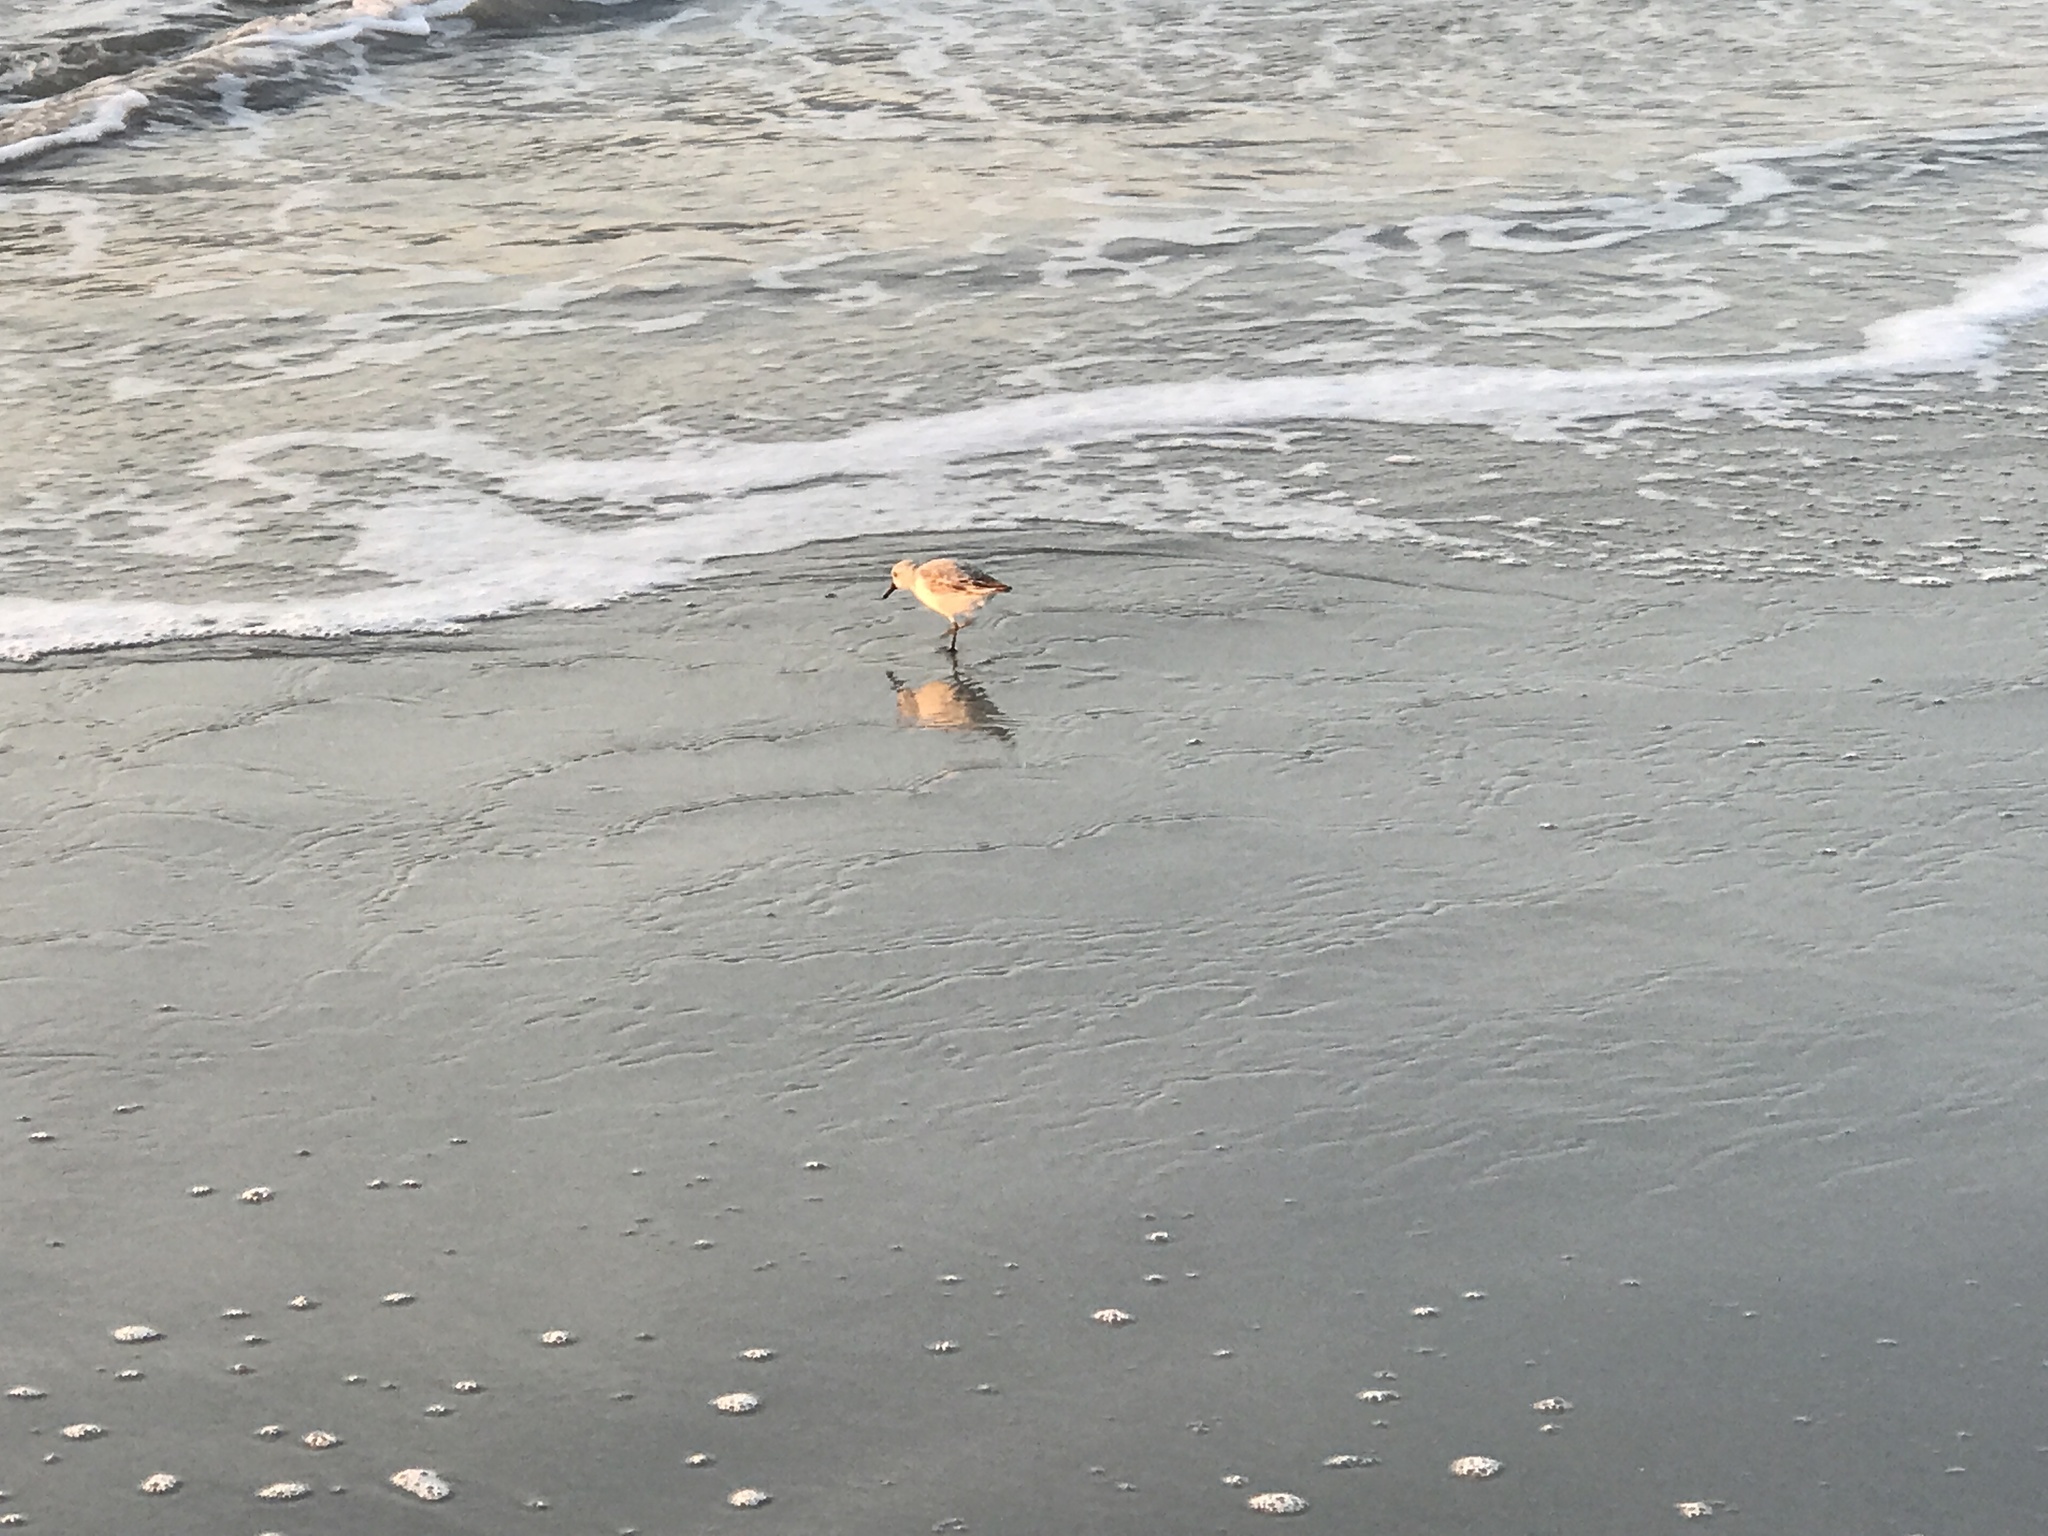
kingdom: Animalia
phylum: Chordata
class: Aves
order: Charadriiformes
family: Scolopacidae
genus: Calidris
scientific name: Calidris alba
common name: Sanderling
